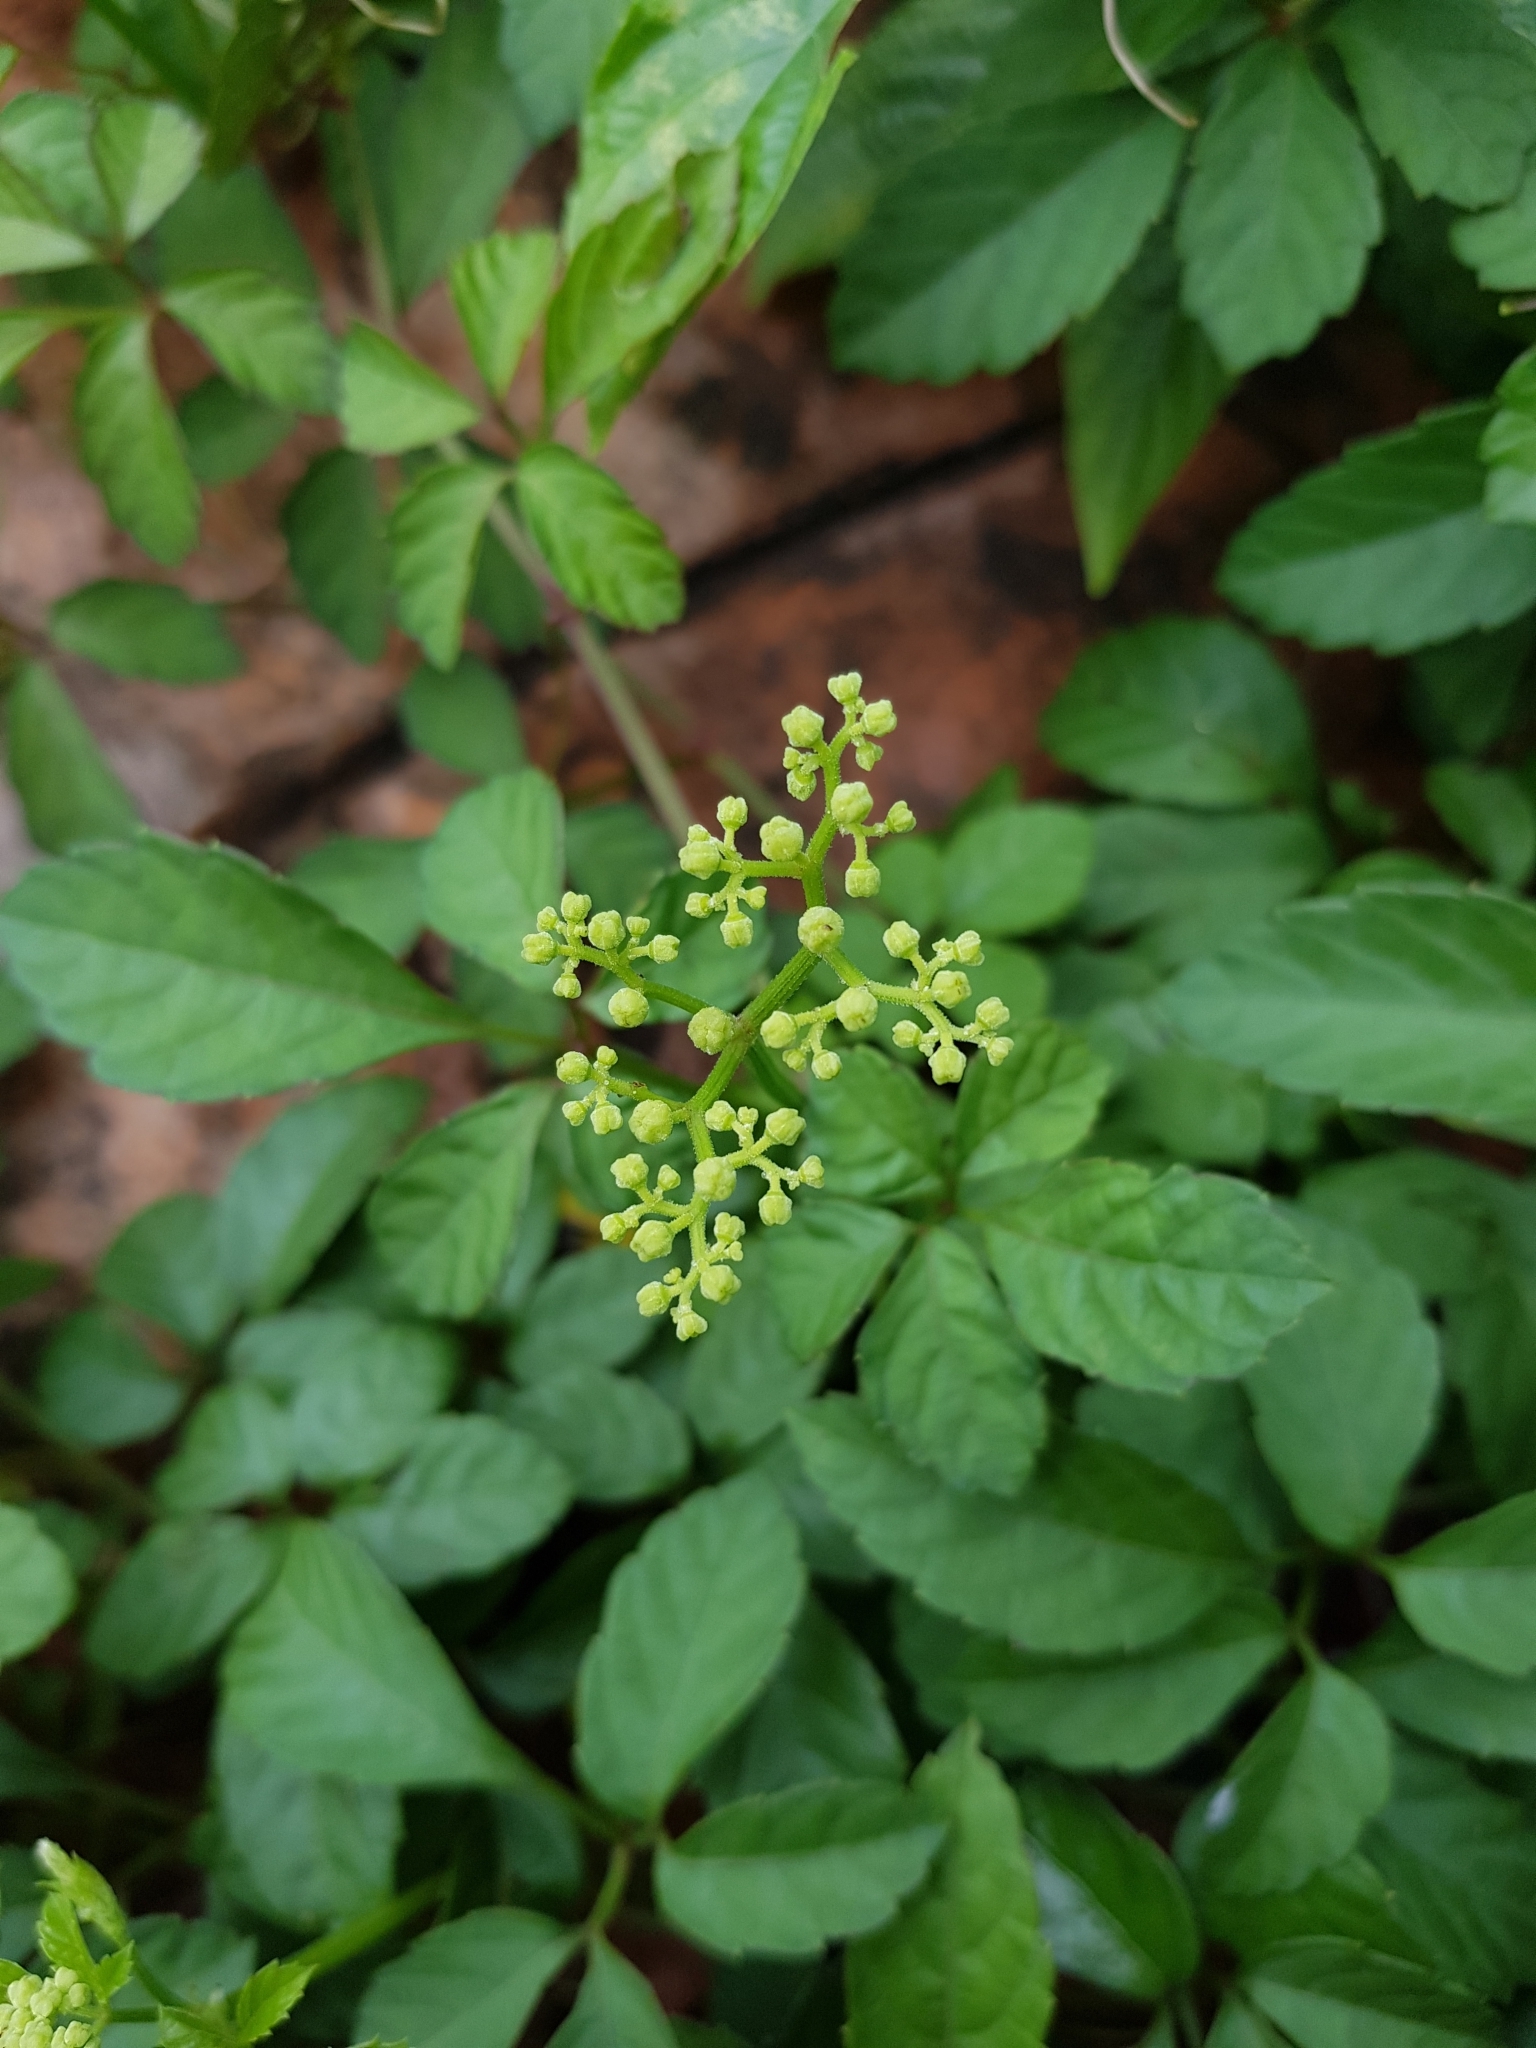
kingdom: Plantae
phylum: Tracheophyta
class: Magnoliopsida
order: Vitales
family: Vitaceae
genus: Causonis
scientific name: Causonis japonica
